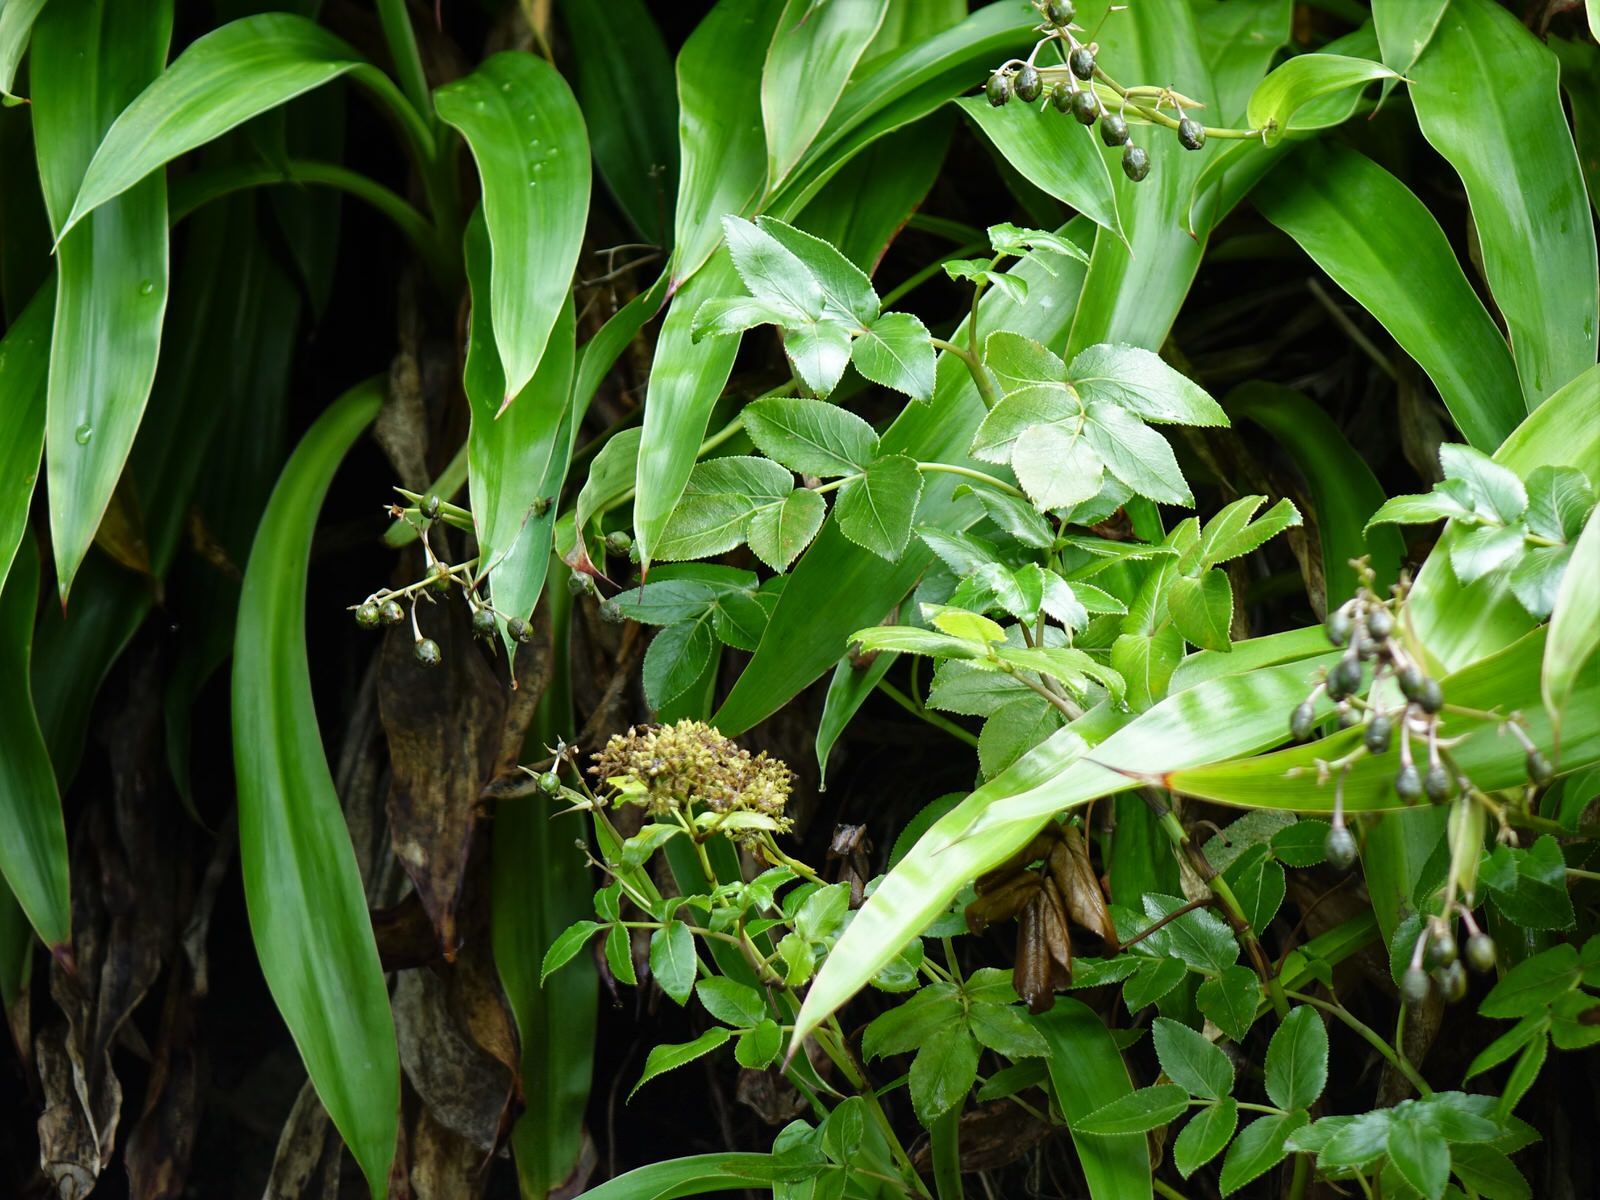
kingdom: Plantae
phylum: Tracheophyta
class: Magnoliopsida
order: Apiales
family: Apiaceae
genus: Scandia
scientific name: Scandia rosifolia
